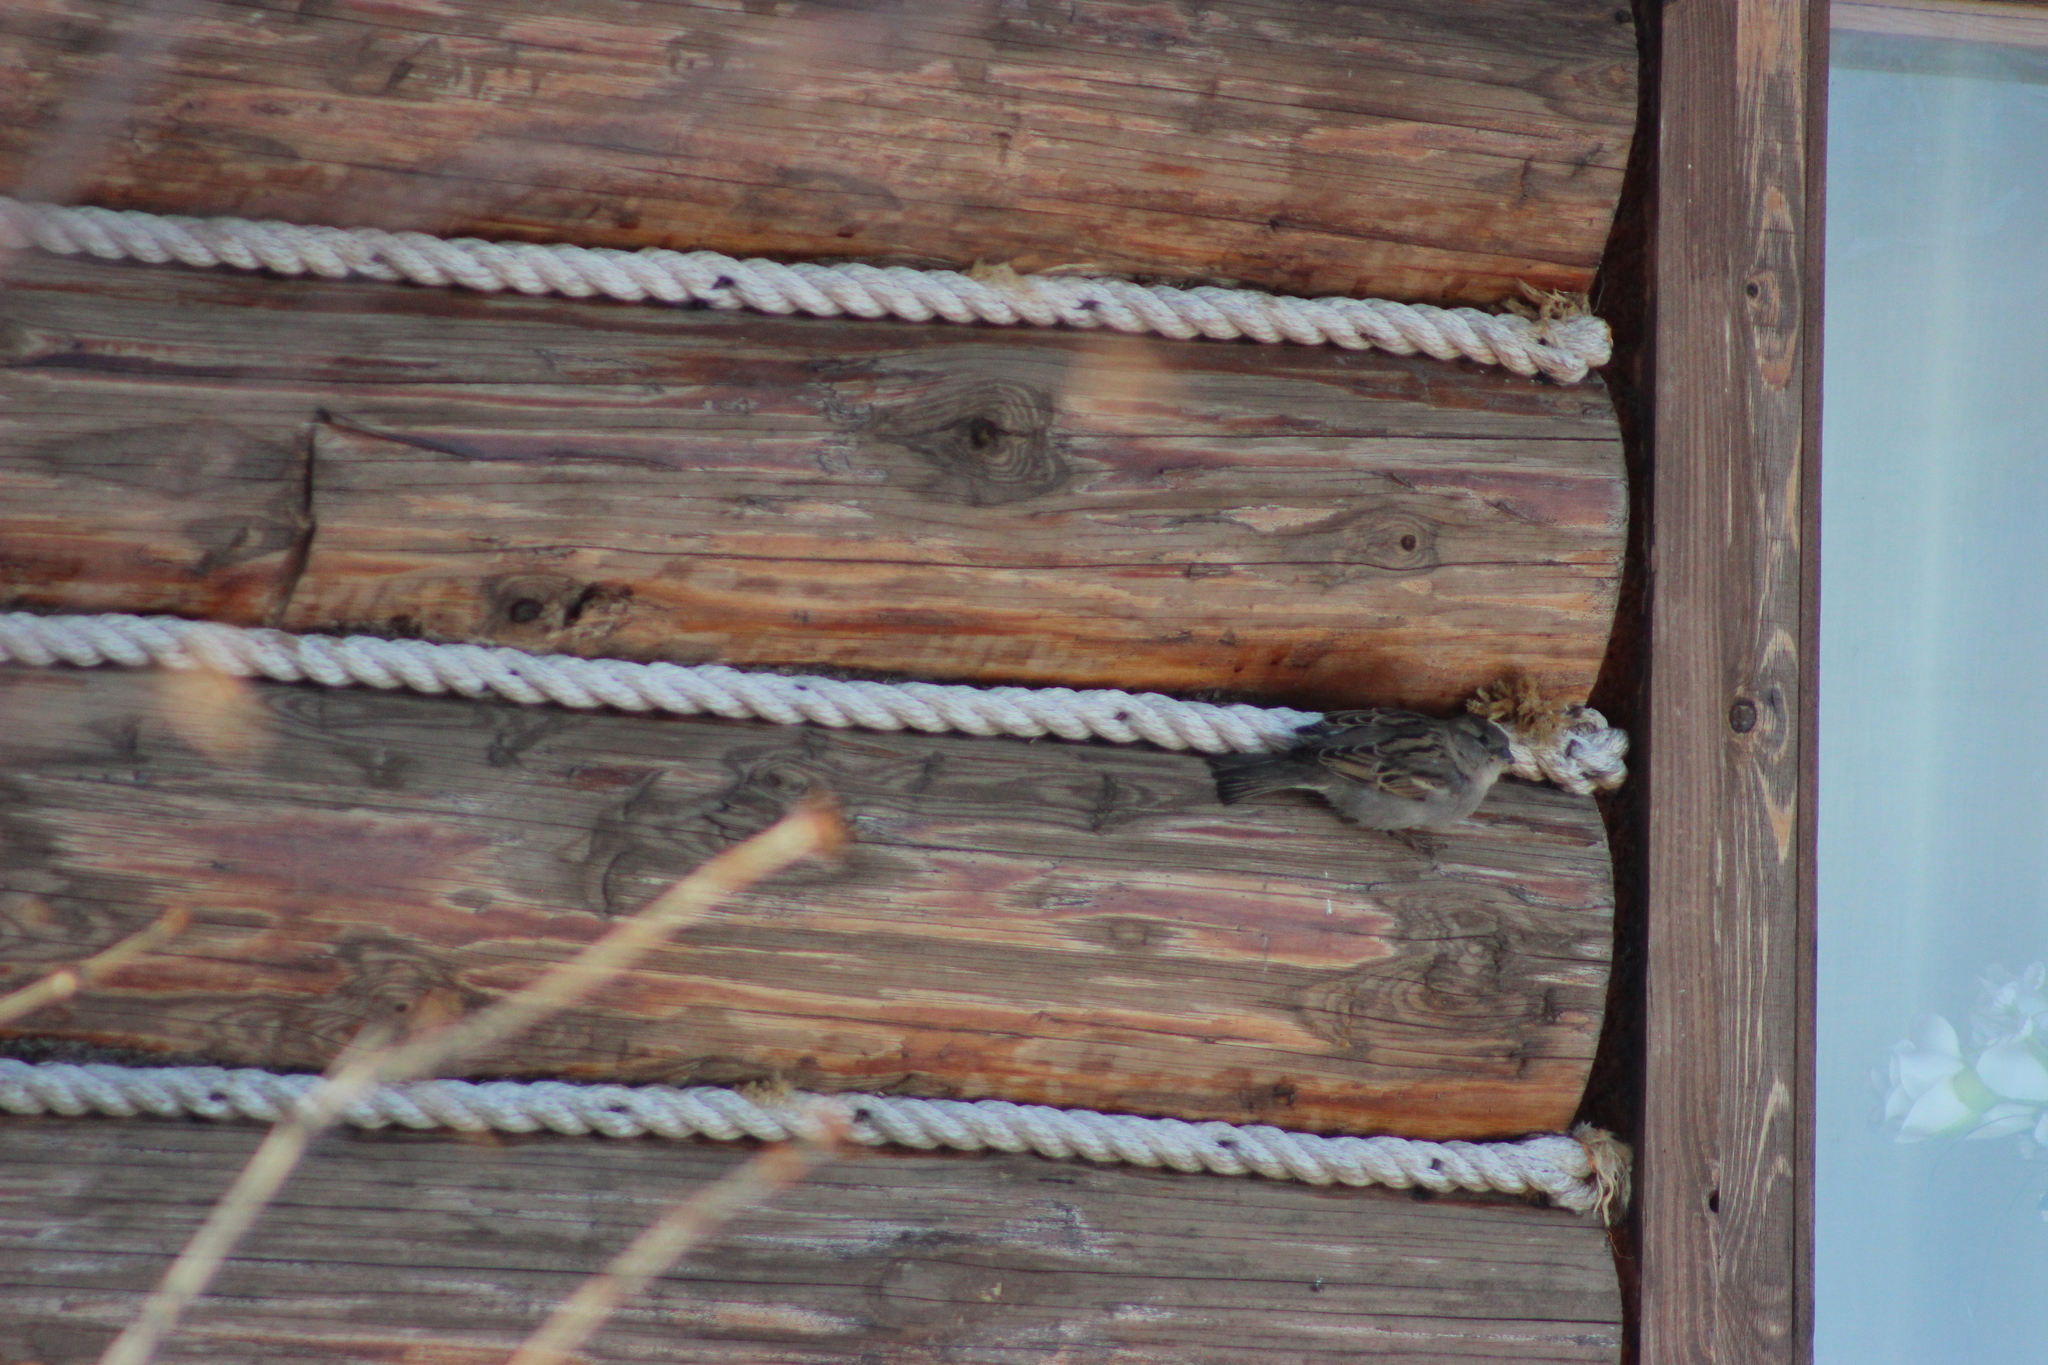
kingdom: Animalia
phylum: Chordata
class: Aves
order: Passeriformes
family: Passeridae
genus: Passer
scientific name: Passer domesticus
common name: House sparrow
